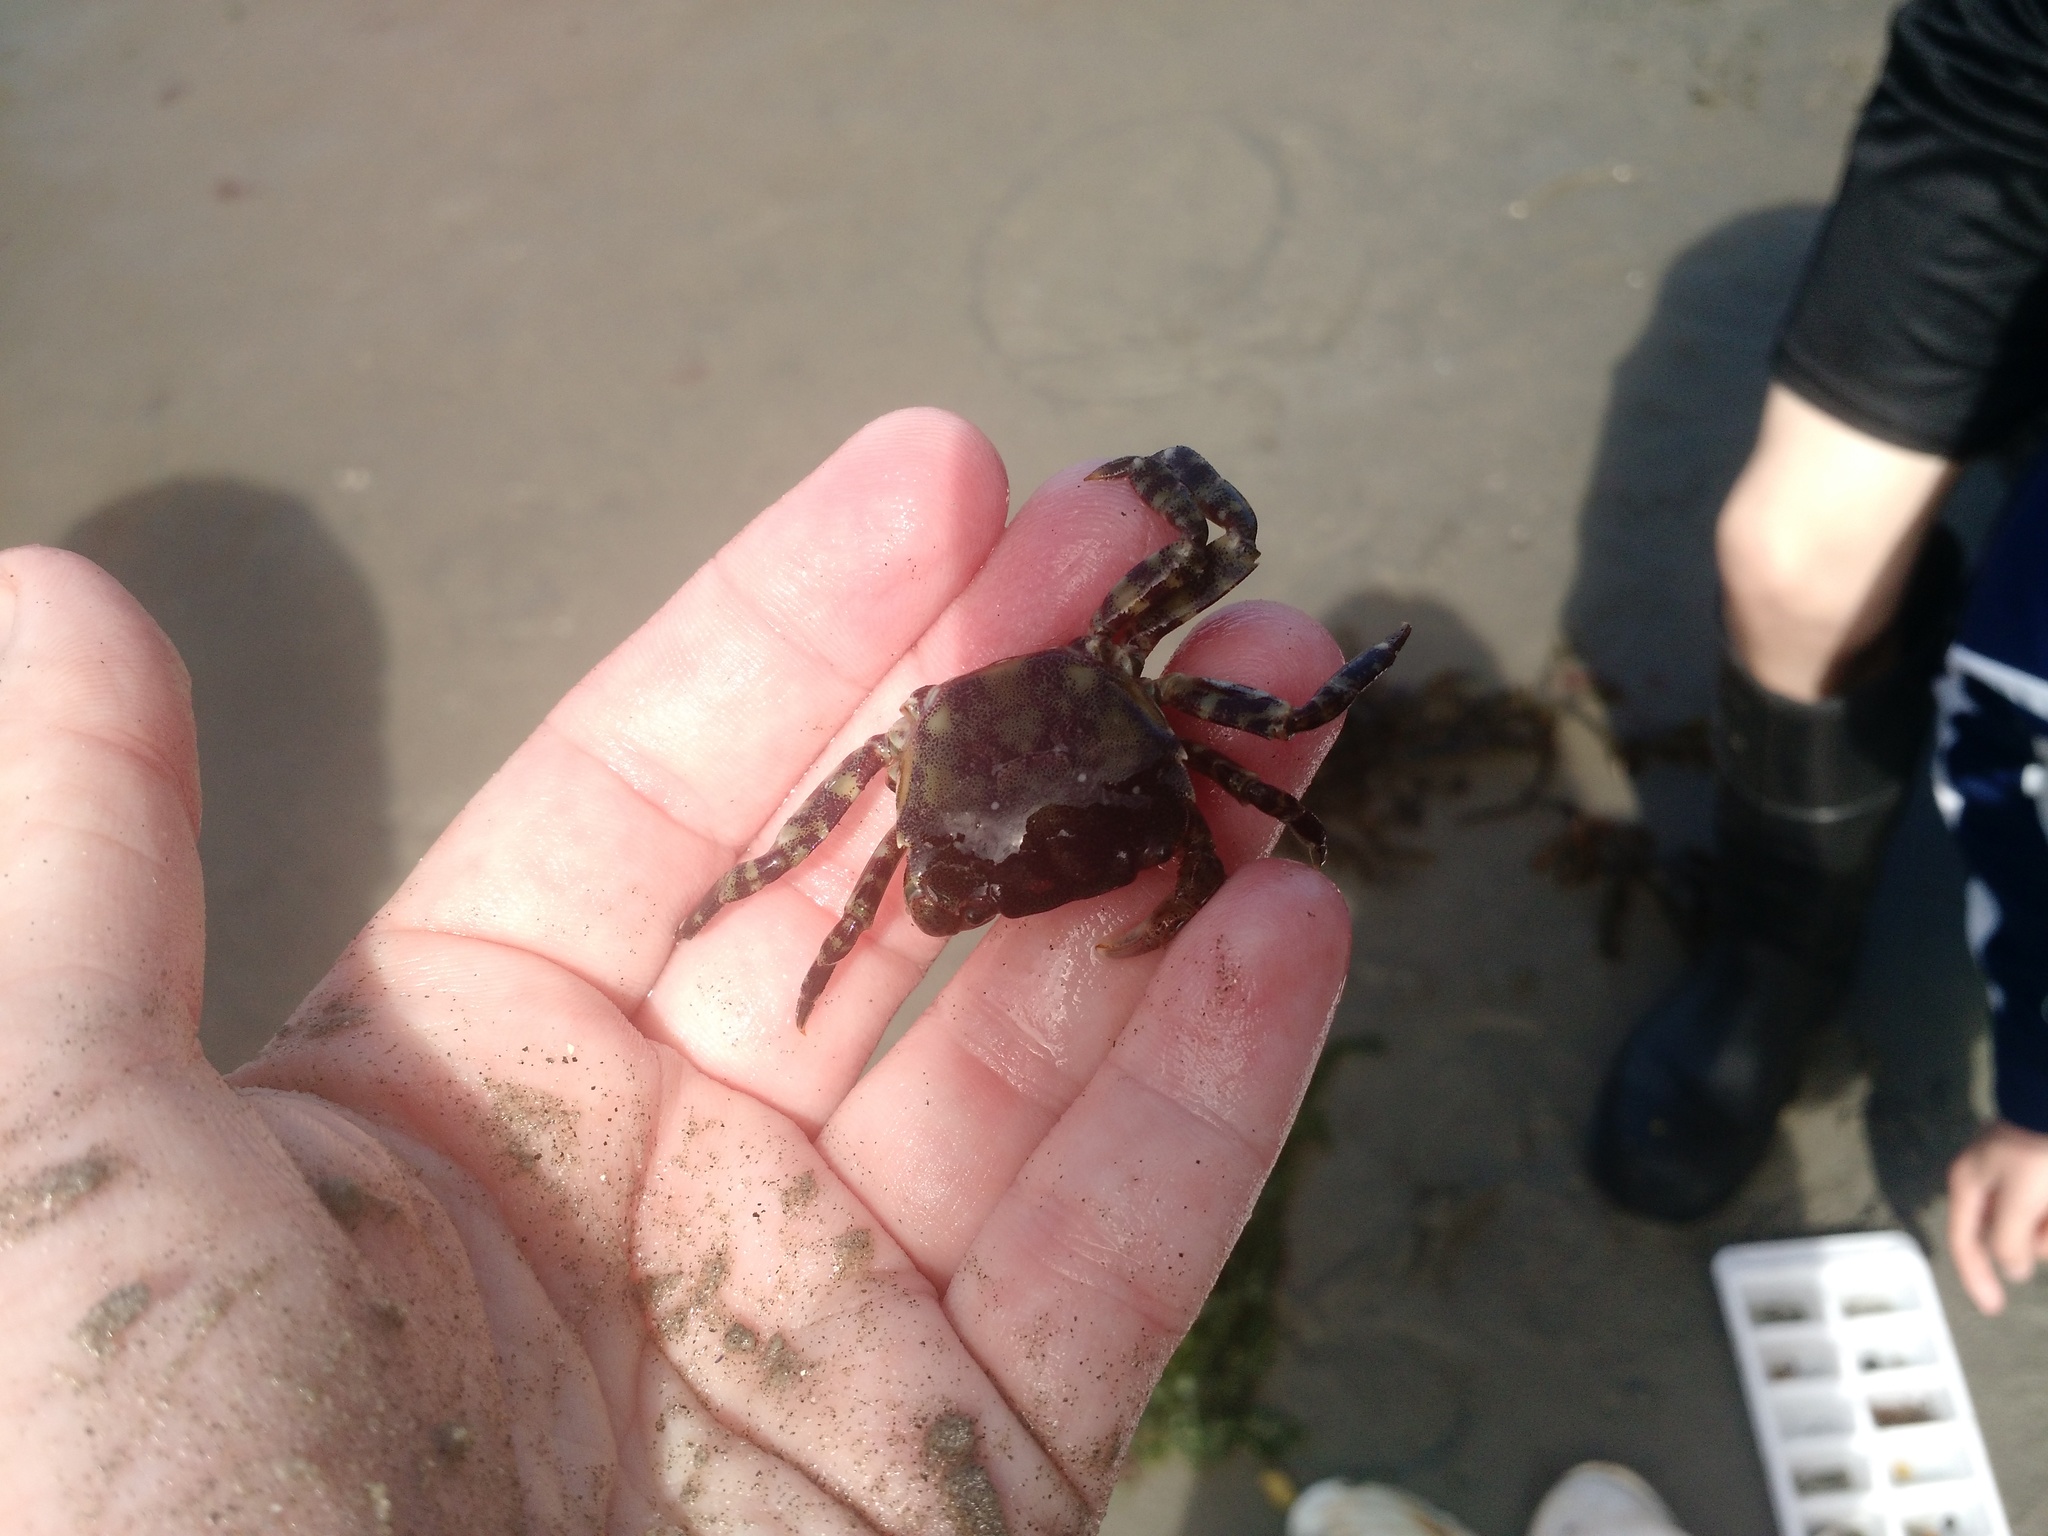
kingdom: Animalia
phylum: Arthropoda
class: Malacostraca
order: Decapoda
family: Varunidae
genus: Hemigrapsus
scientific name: Hemigrapsus sanguineus
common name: Asian shore crab
